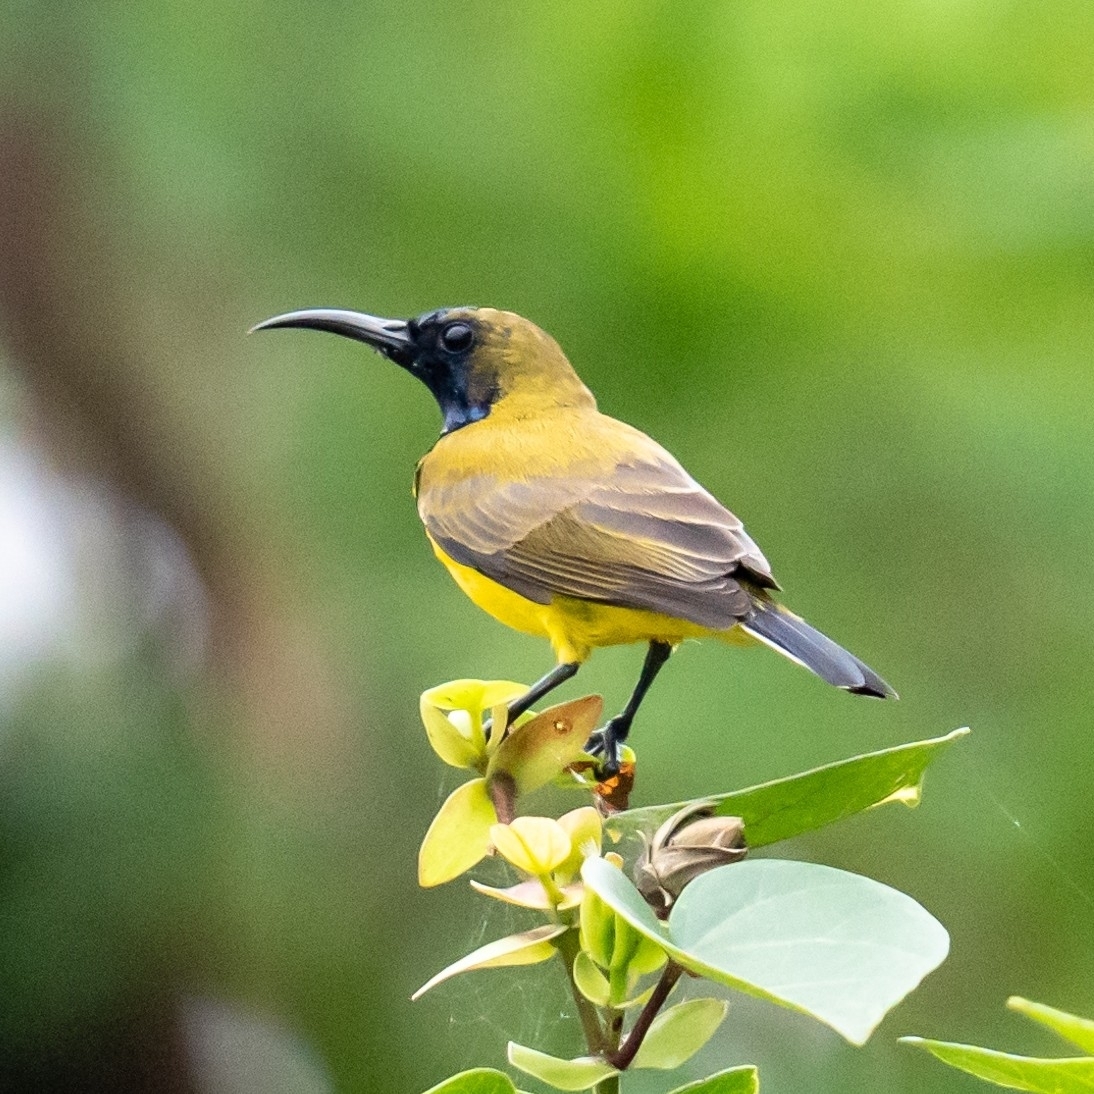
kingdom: Animalia
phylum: Chordata
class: Aves
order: Passeriformes
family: Nectariniidae
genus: Cinnyris
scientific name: Cinnyris
